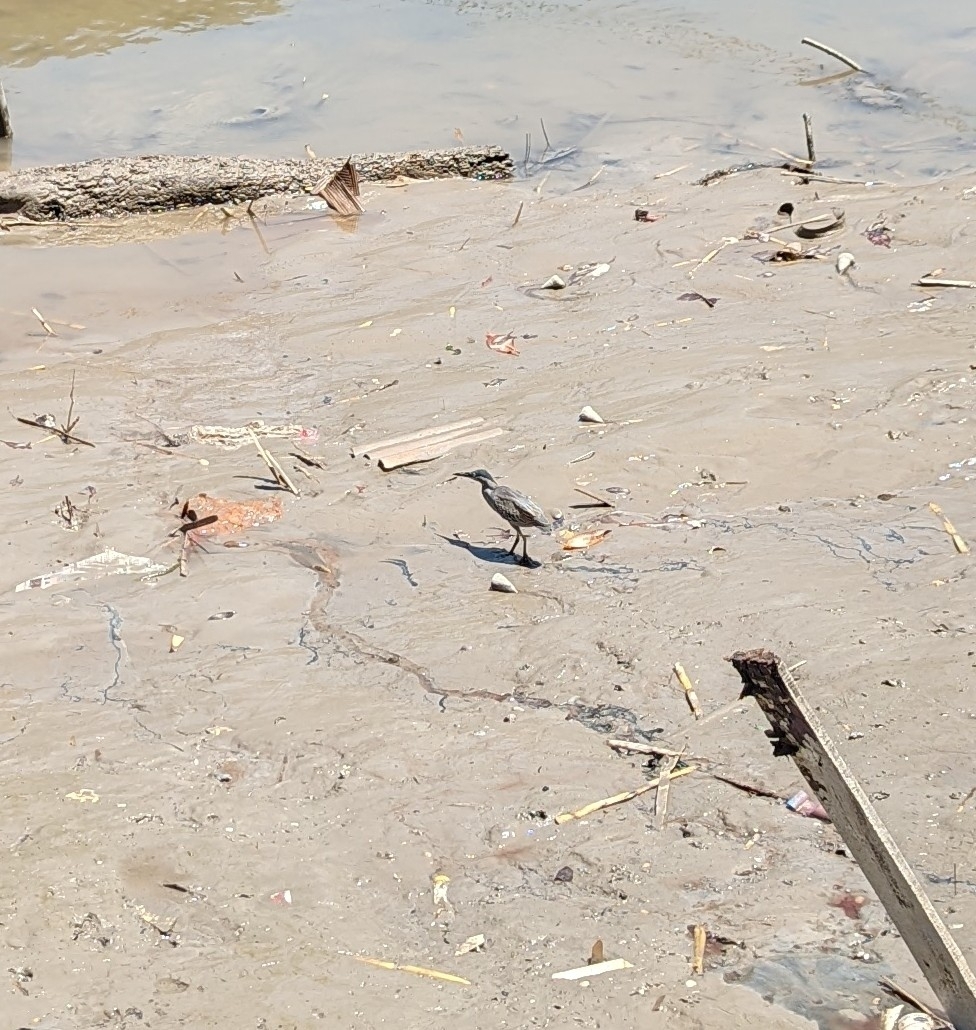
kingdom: Animalia
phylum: Chordata
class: Aves
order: Pelecaniformes
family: Ardeidae
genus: Butorides
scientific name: Butorides striata
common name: Striated heron
